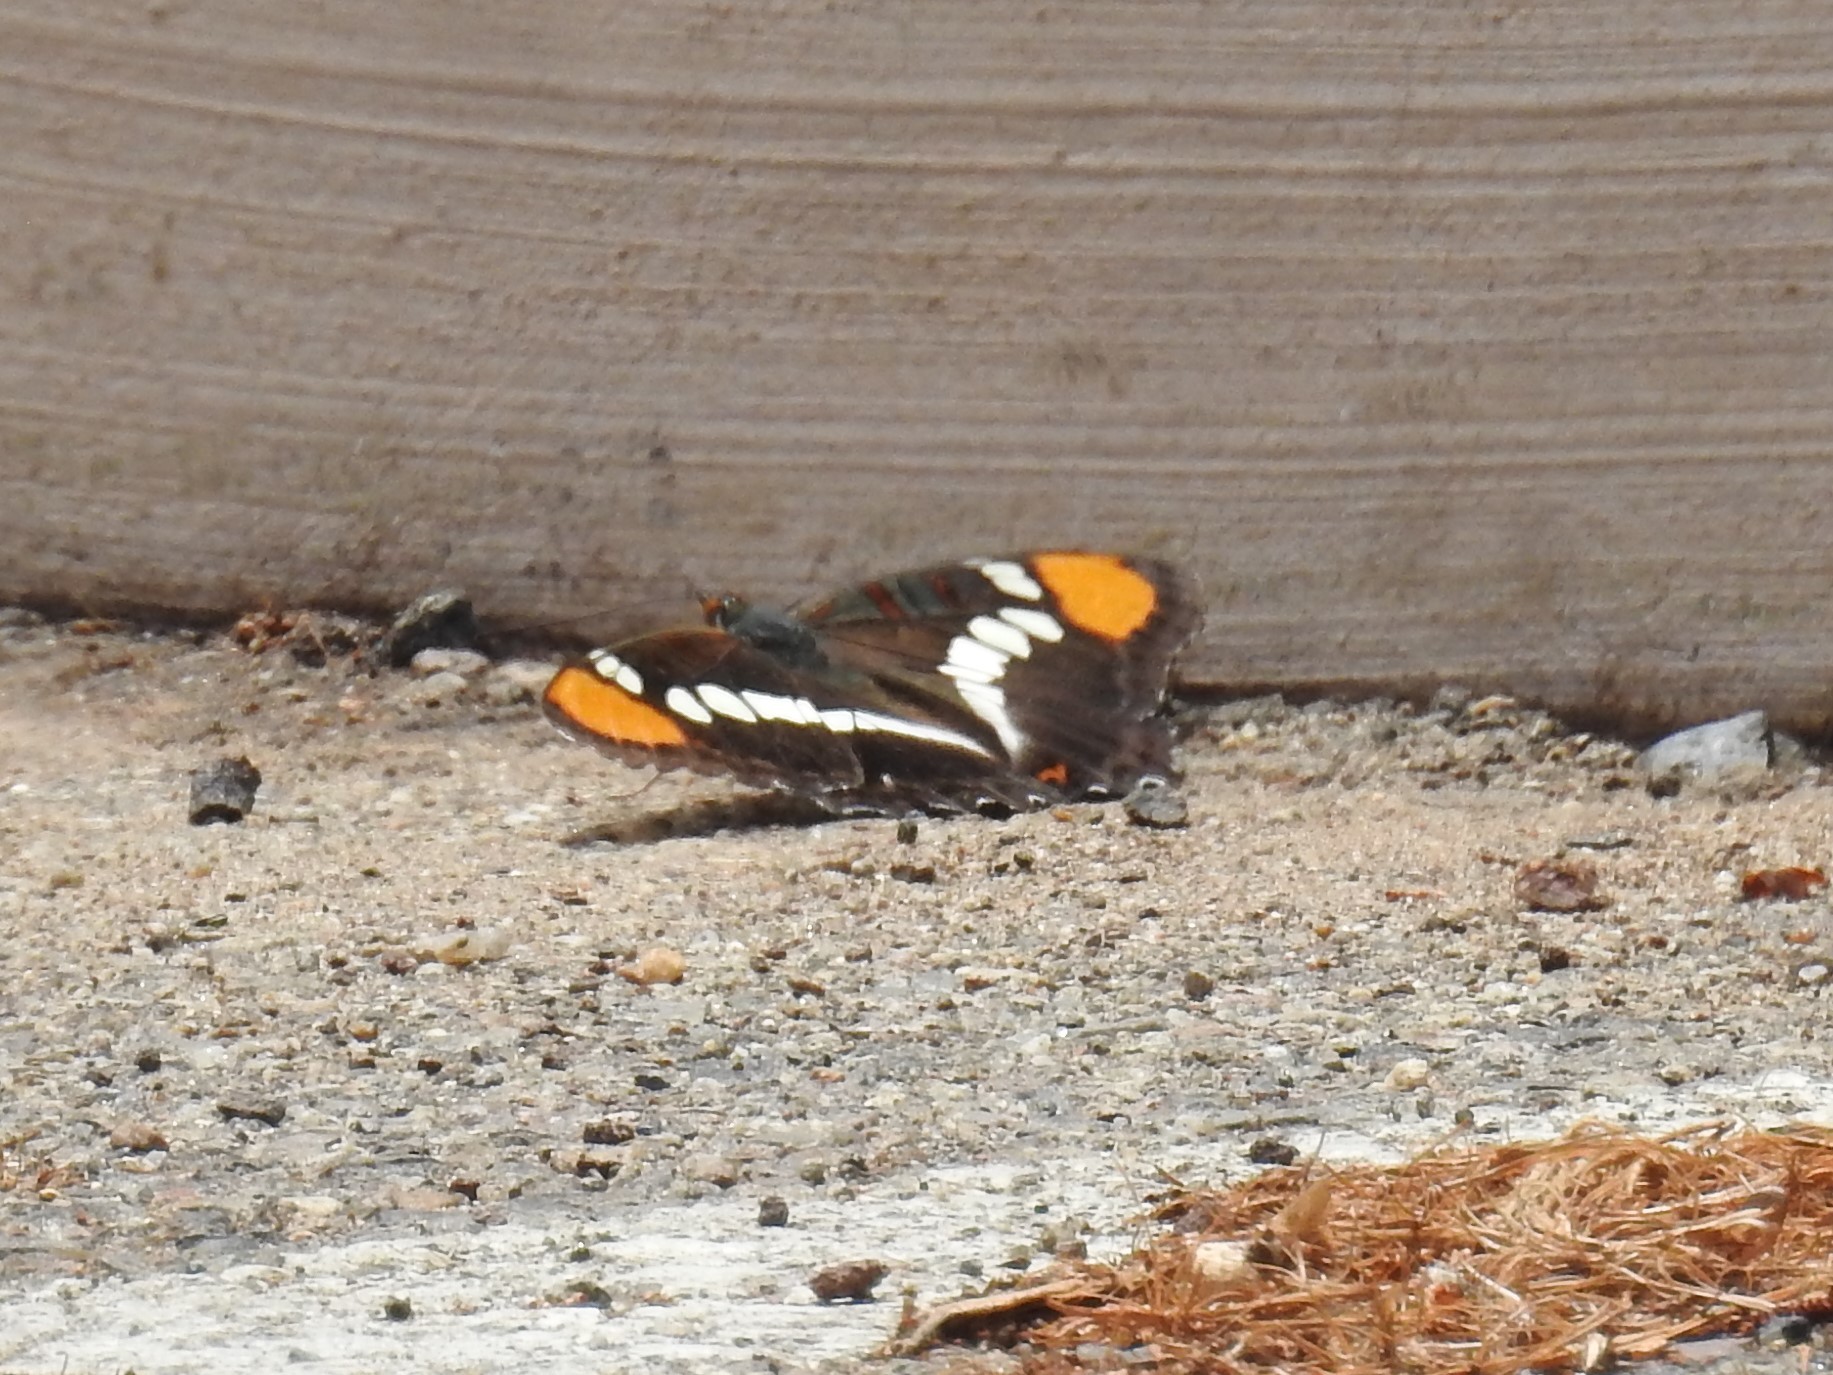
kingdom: Animalia
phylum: Arthropoda
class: Insecta
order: Lepidoptera
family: Nymphalidae
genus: Limenitis
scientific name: Limenitis bredowii
